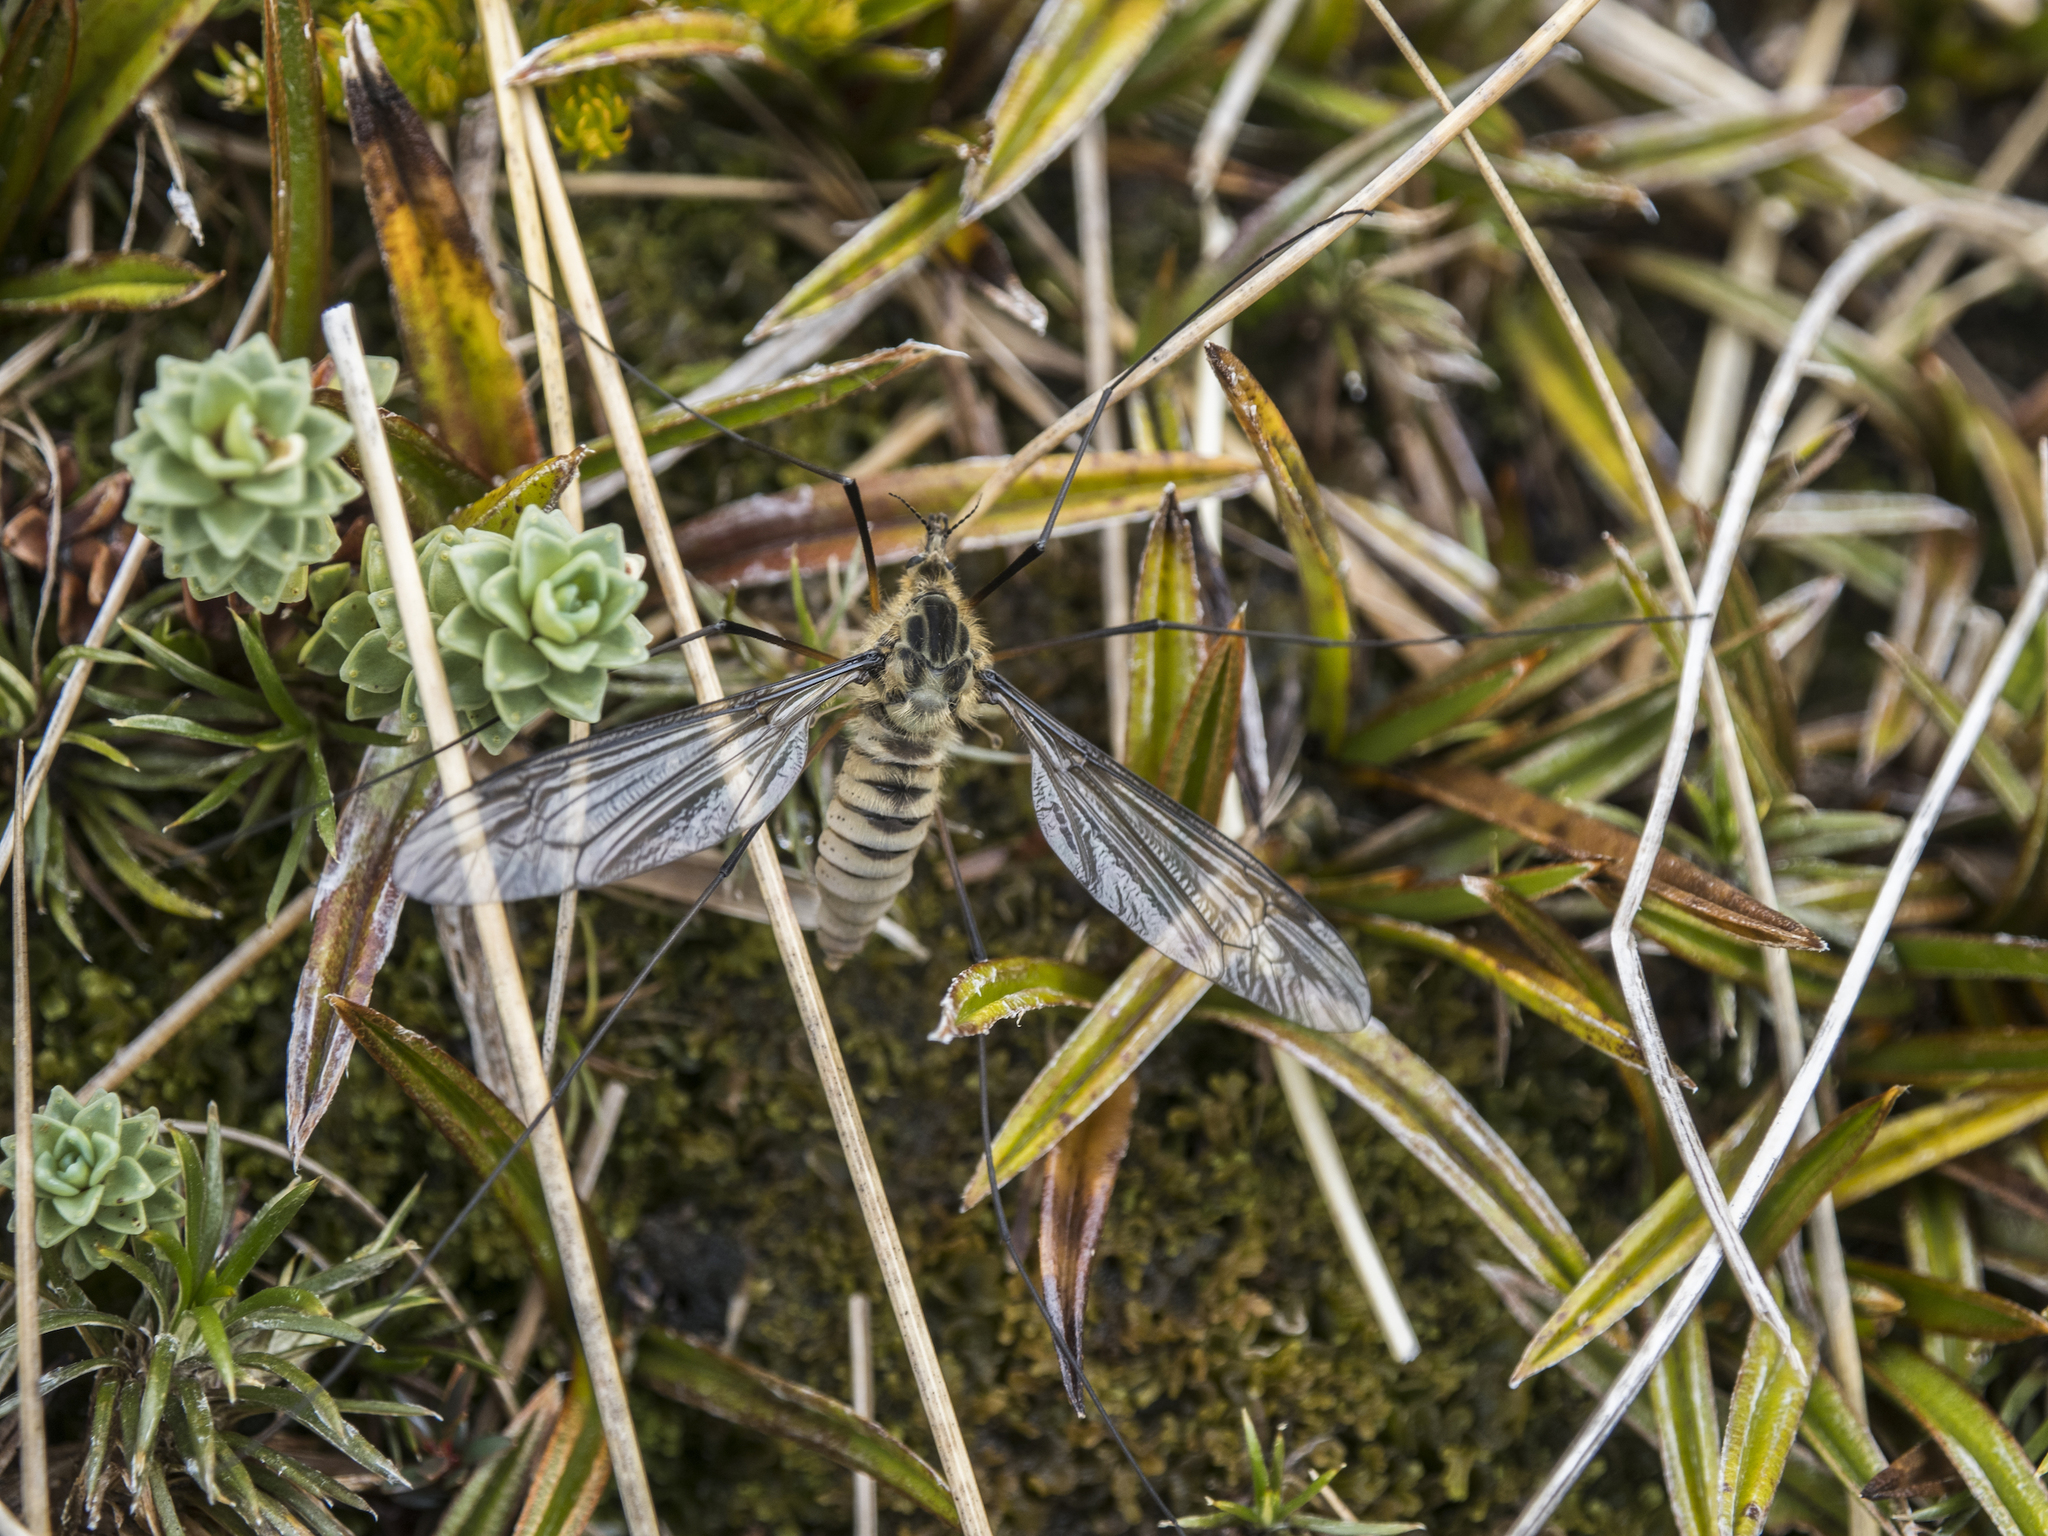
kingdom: Animalia
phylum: Arthropoda
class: Insecta
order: Diptera
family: Tipulidae
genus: Leptotarsus
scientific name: Leptotarsus montanus
